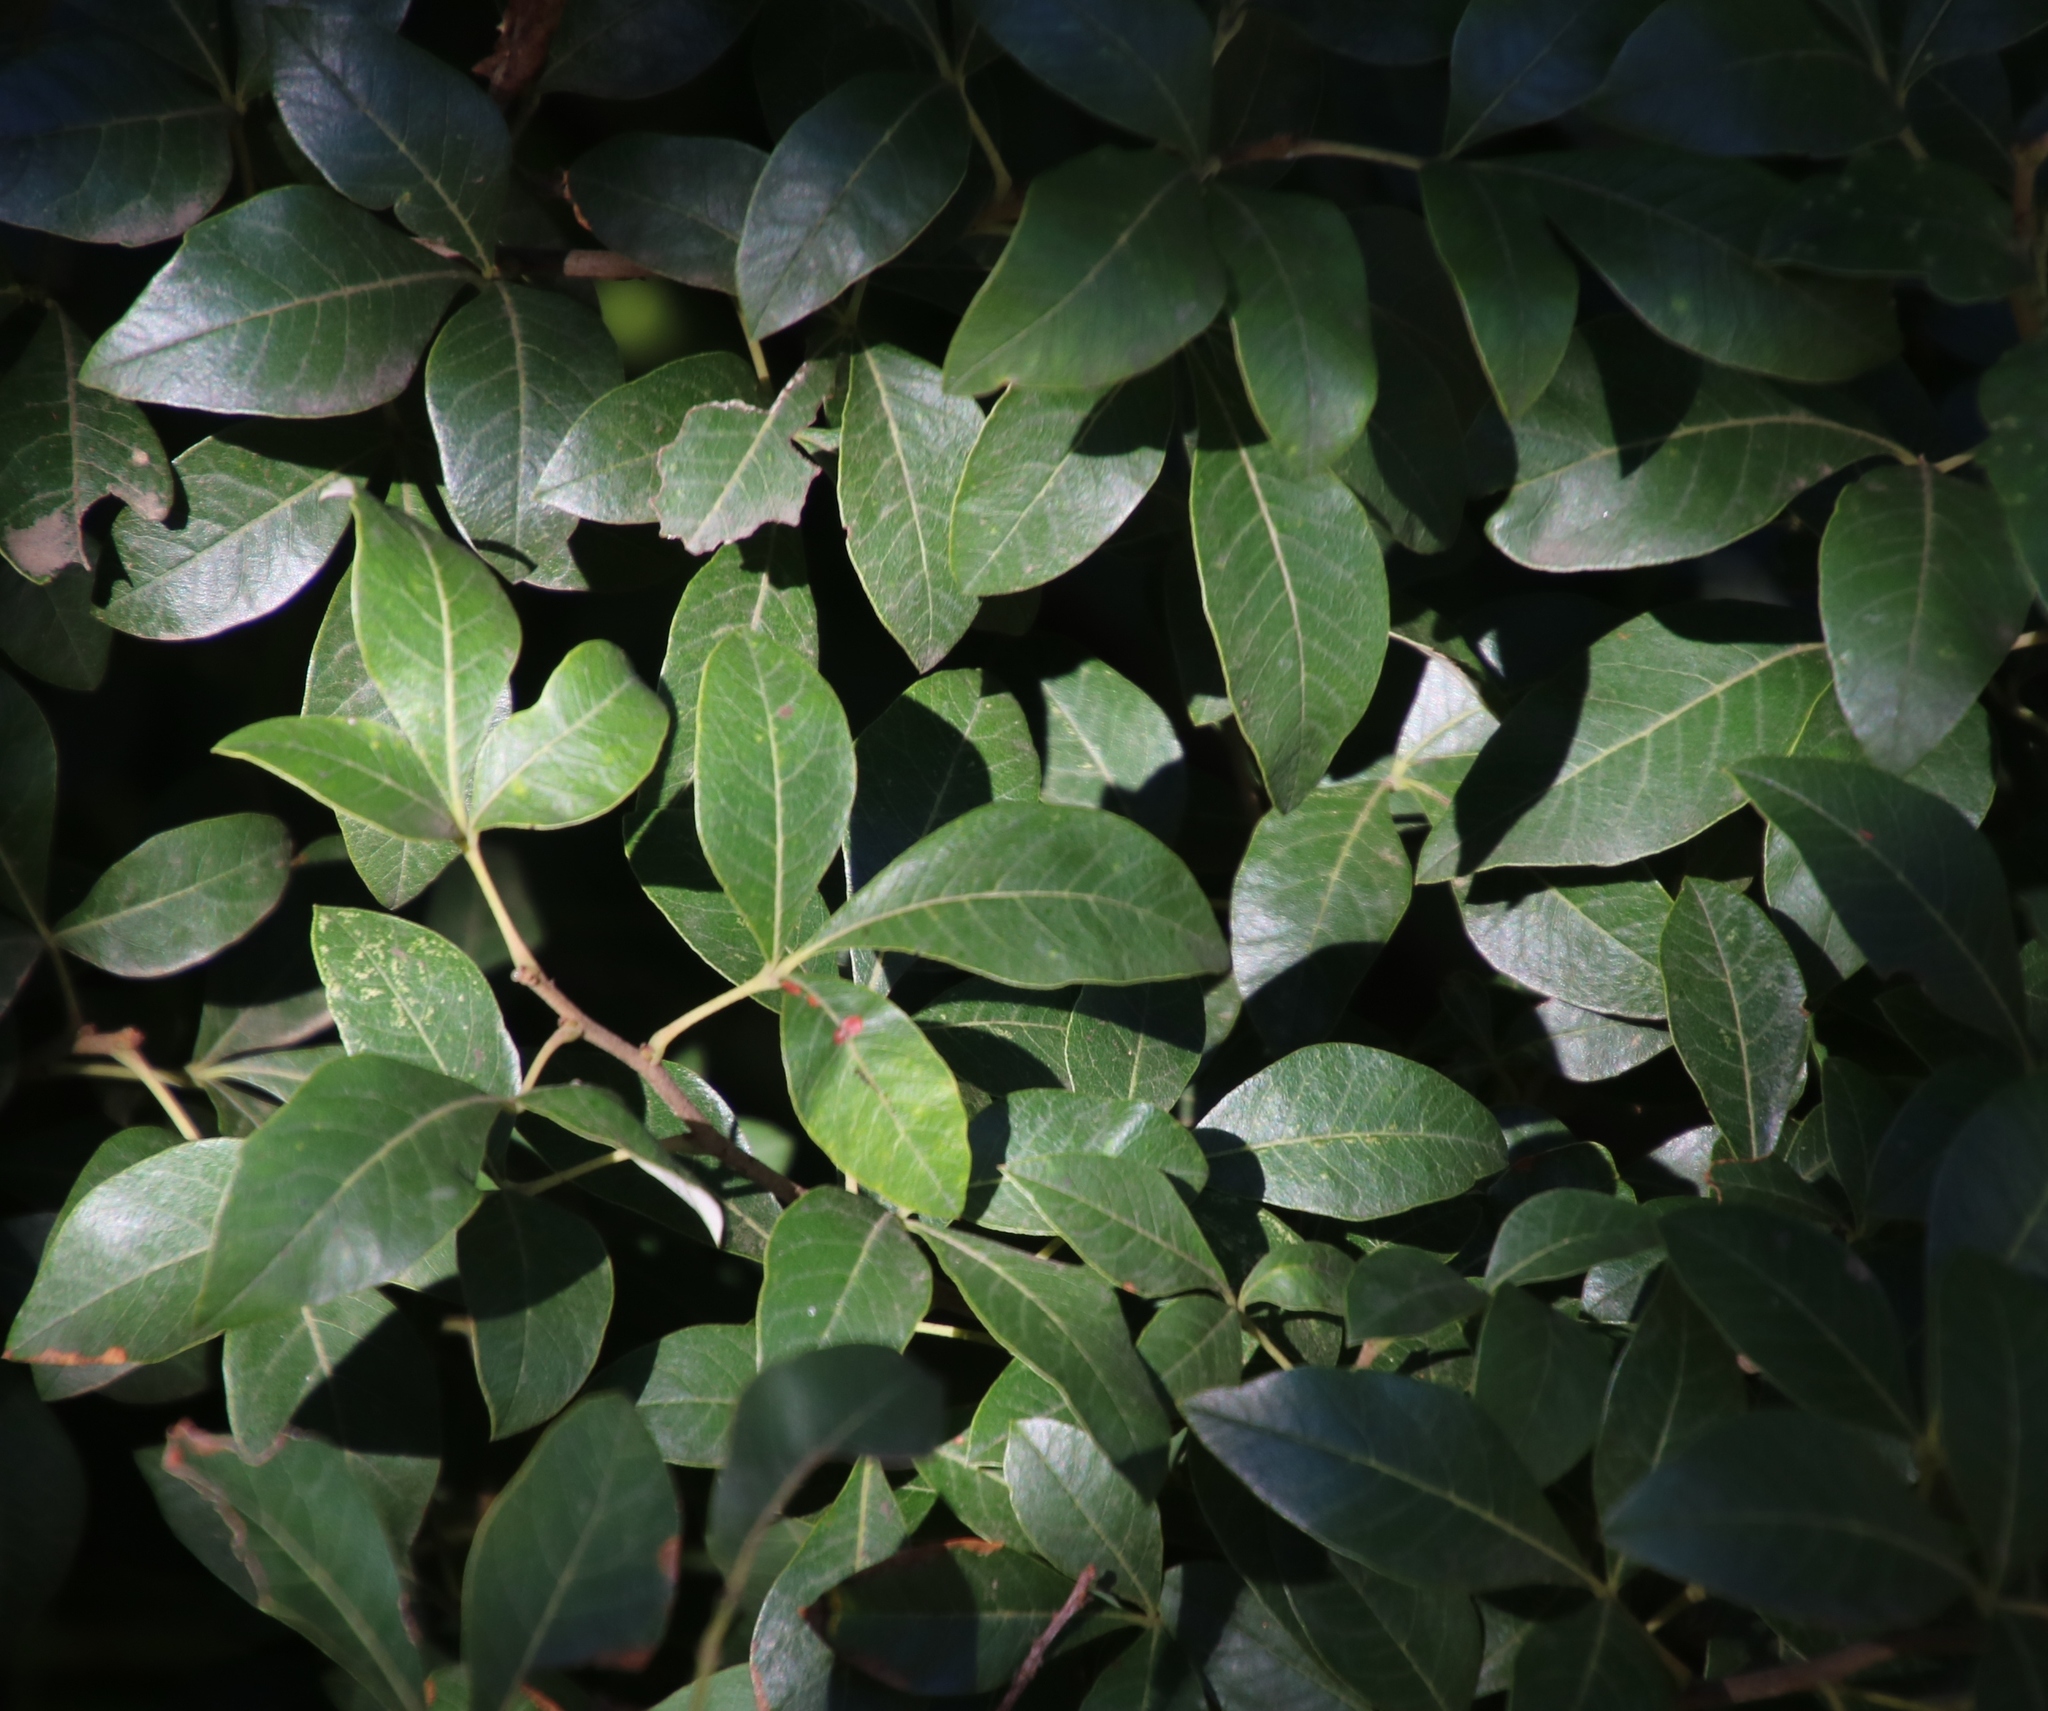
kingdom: Plantae
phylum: Tracheophyta
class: Magnoliopsida
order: Sapindales
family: Anacardiaceae
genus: Searsia
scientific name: Searsia tomentosa
